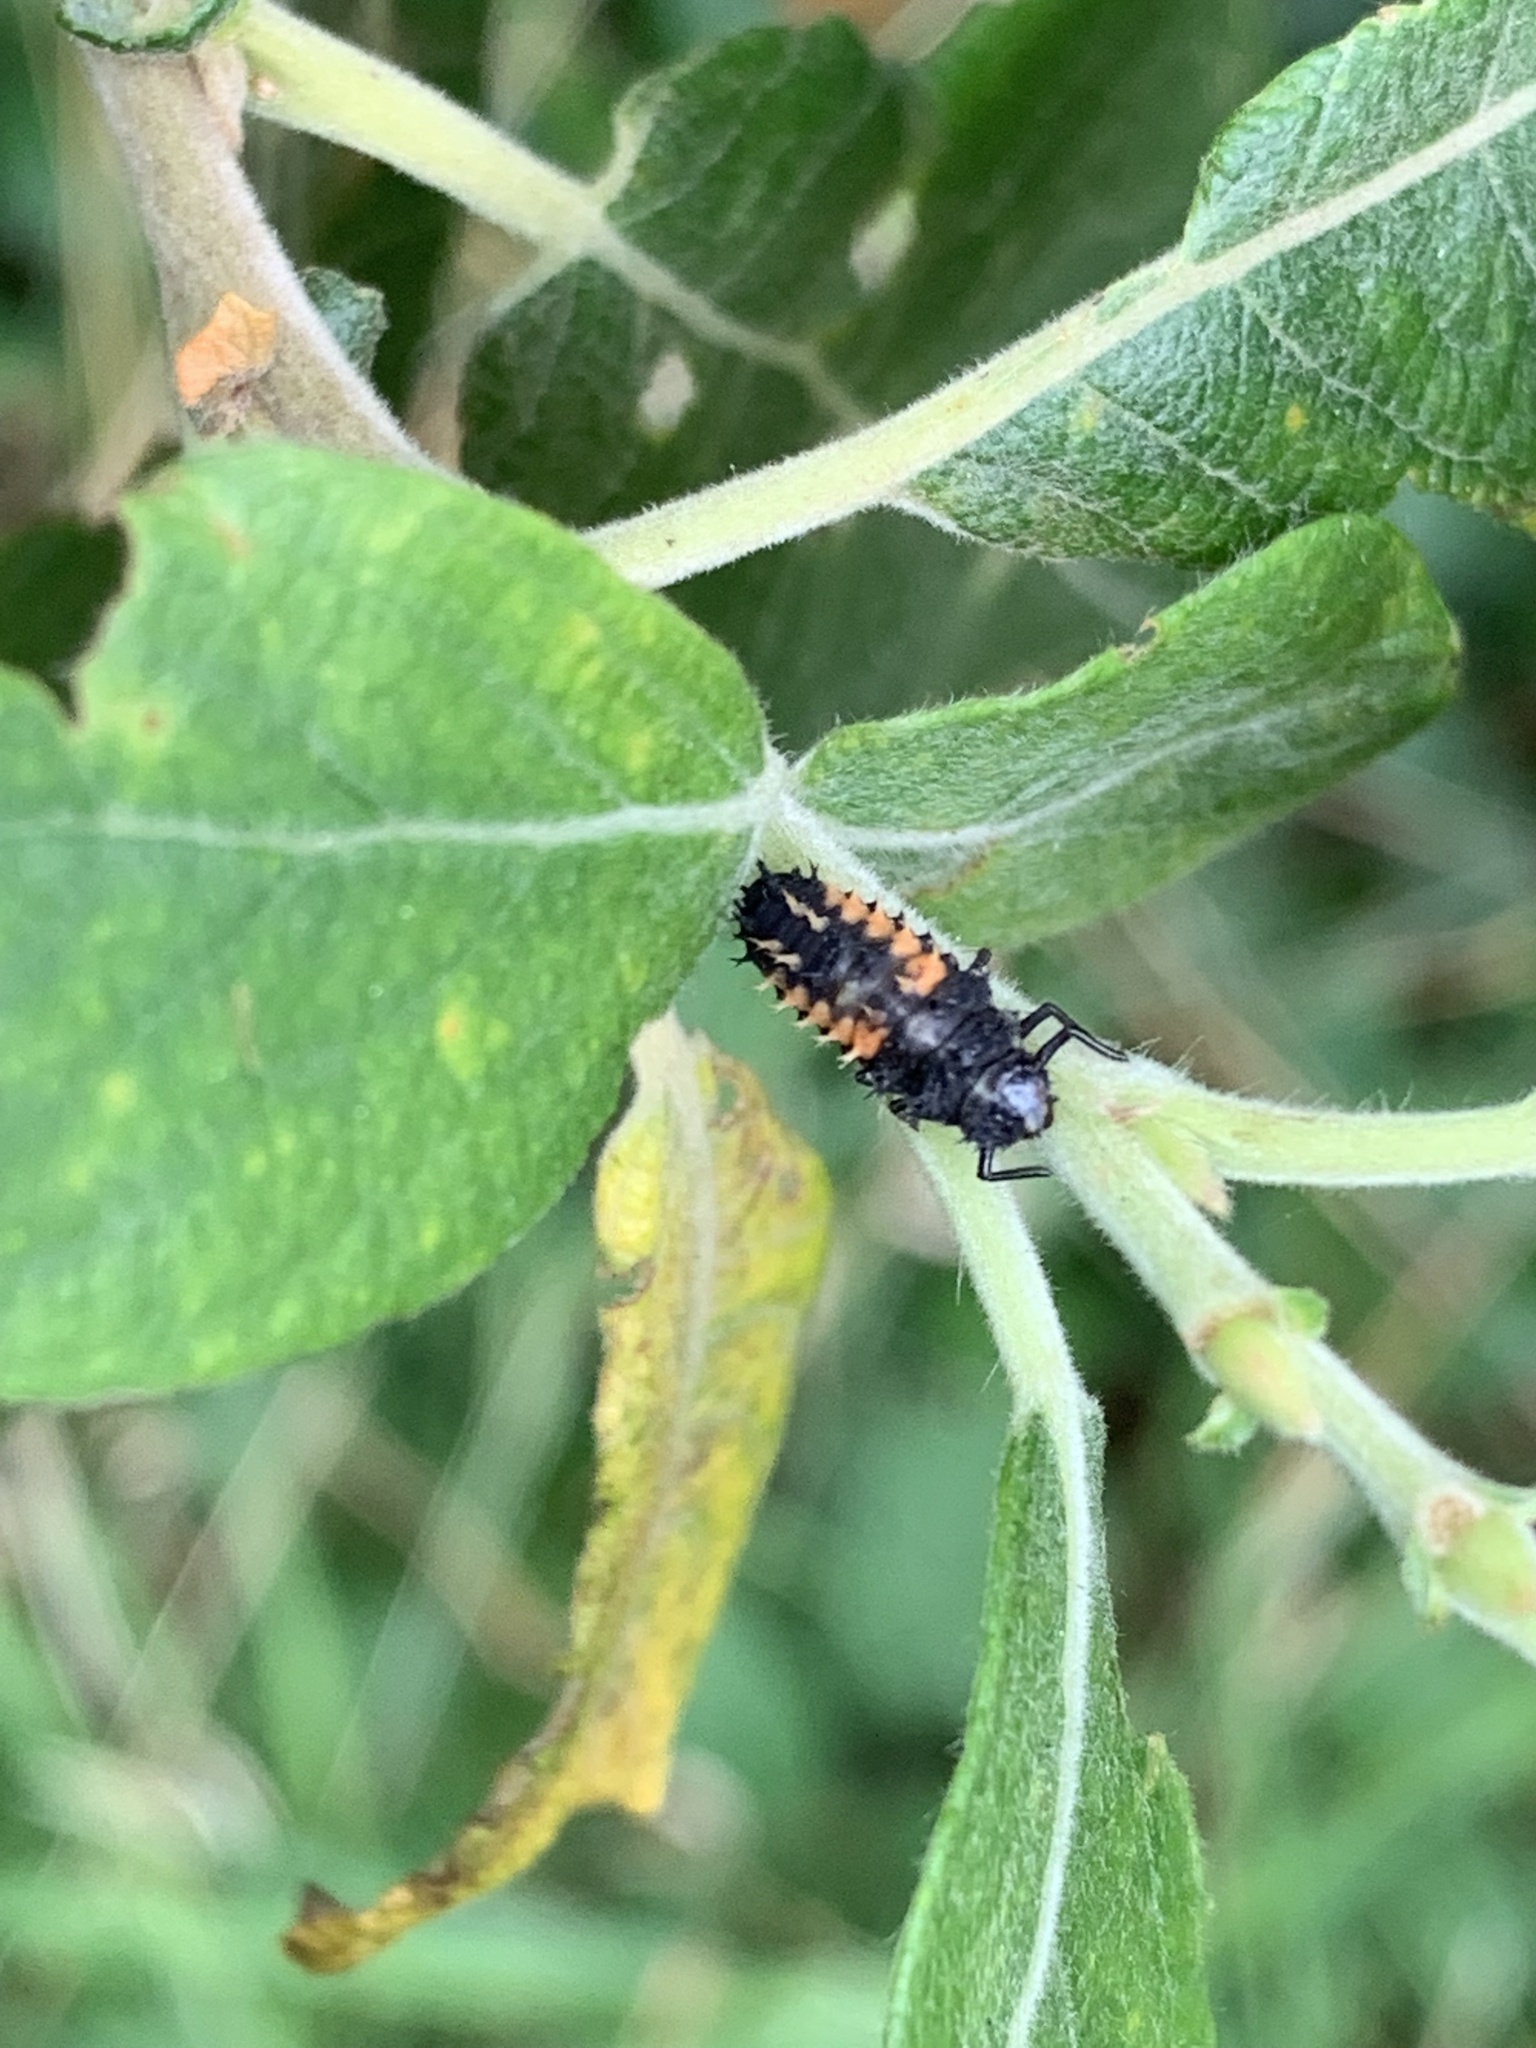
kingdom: Animalia
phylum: Arthropoda
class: Insecta
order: Coleoptera
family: Coccinellidae
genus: Harmonia
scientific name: Harmonia axyridis
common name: Harlequin ladybird
